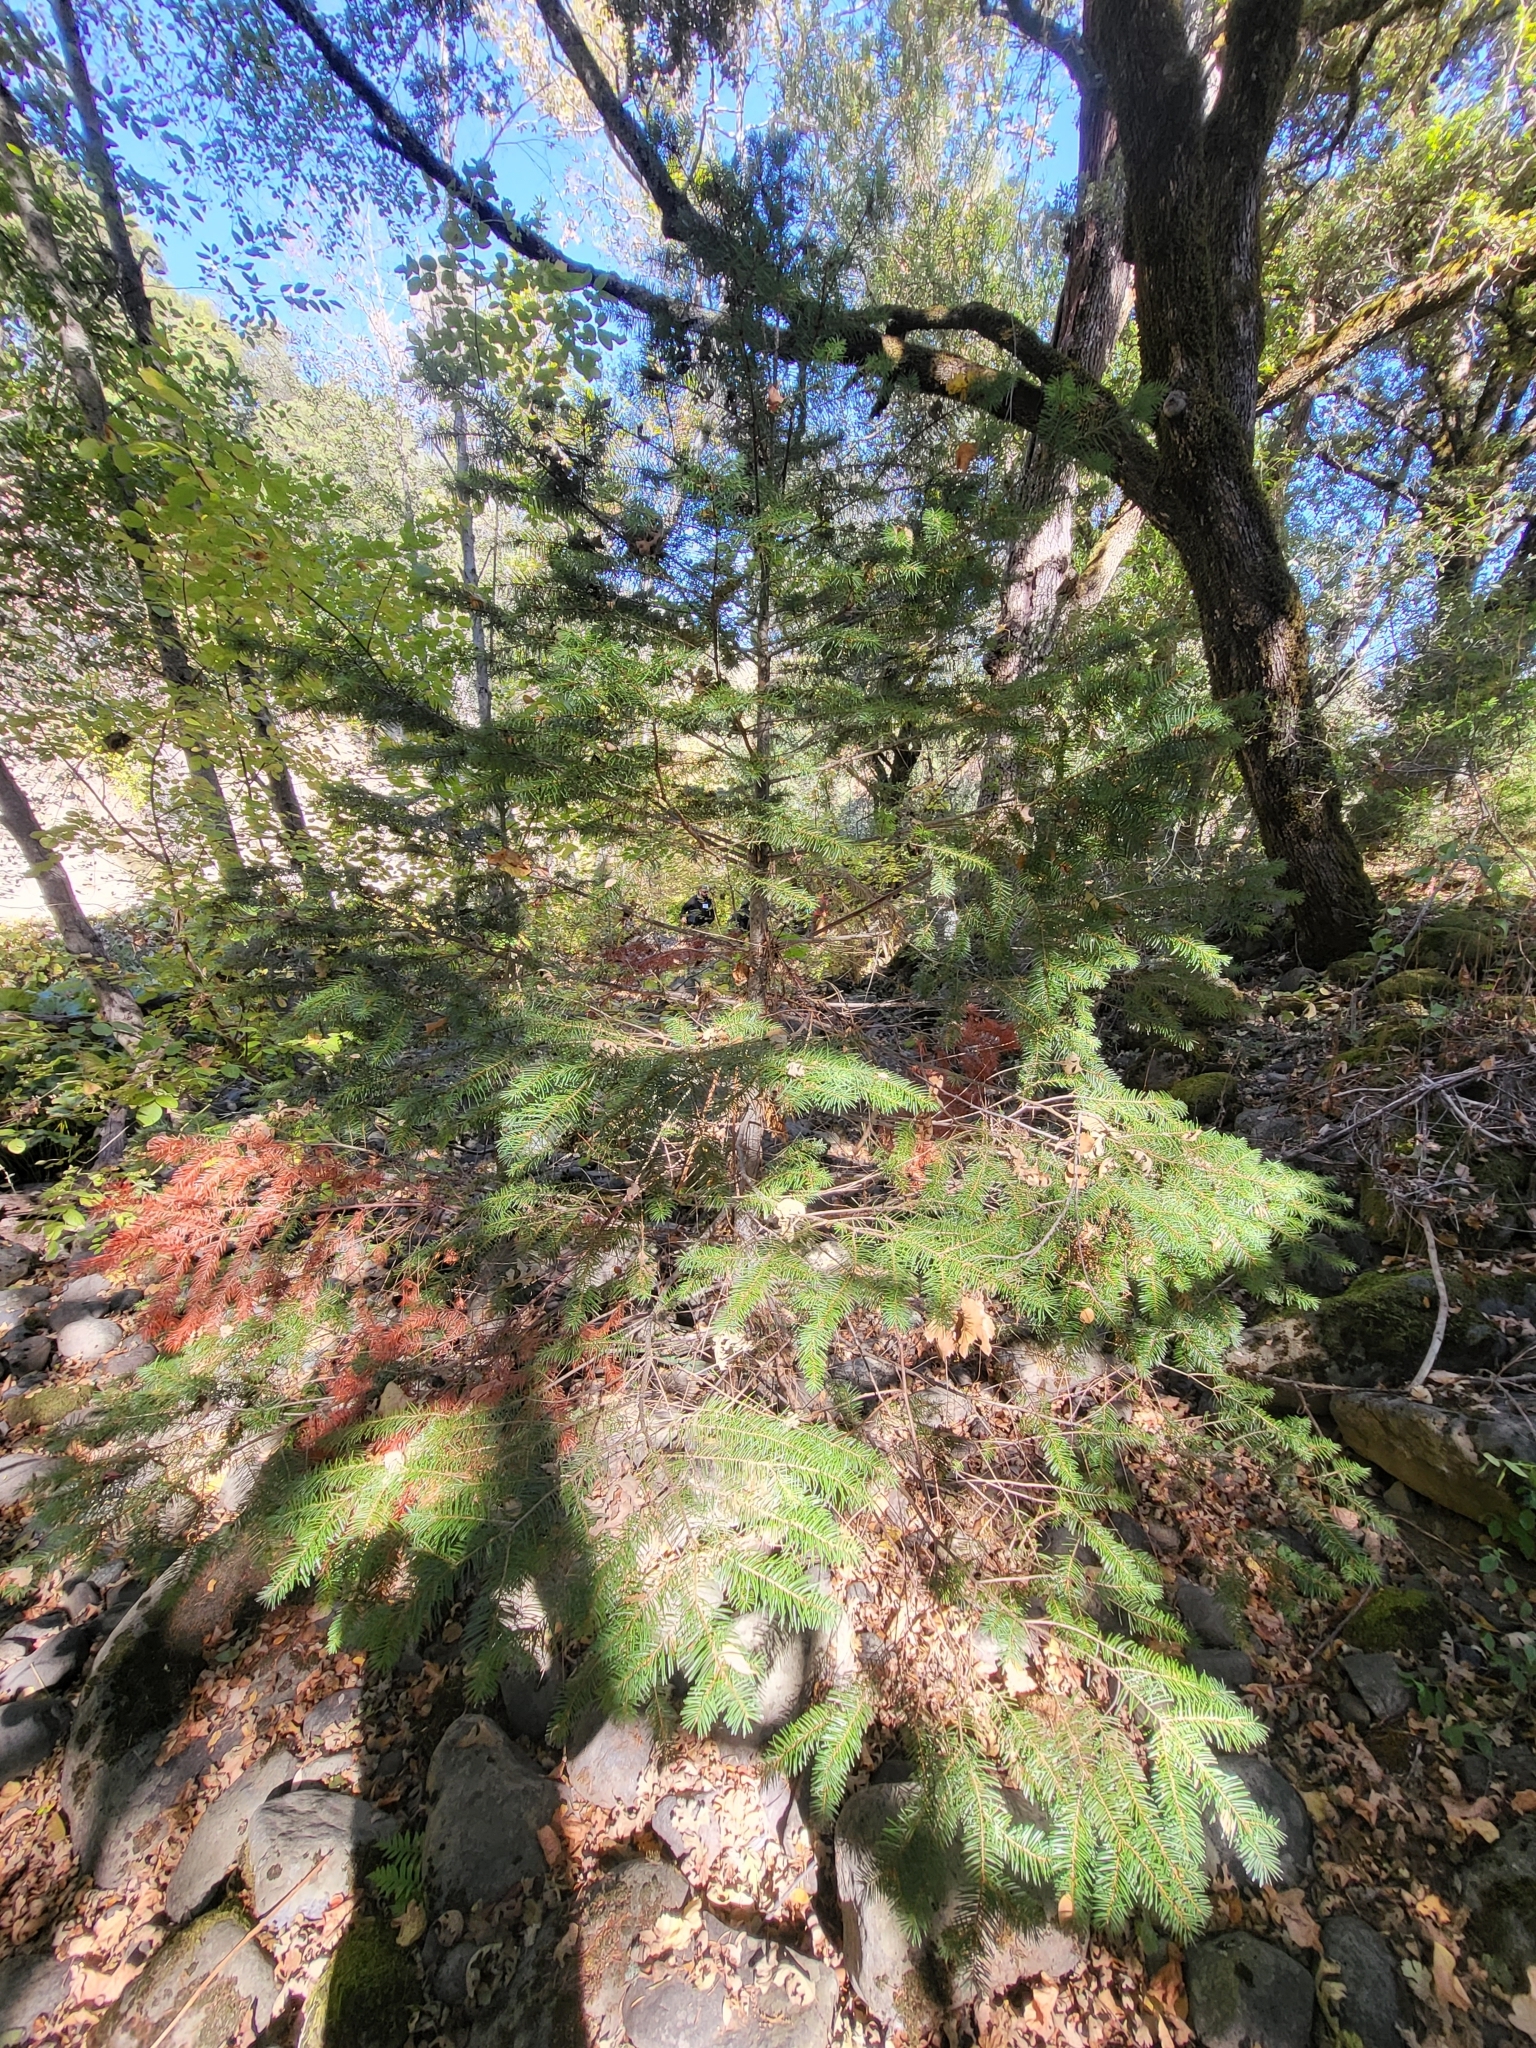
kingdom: Plantae
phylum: Tracheophyta
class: Pinopsida
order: Pinales
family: Pinaceae
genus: Pseudotsuga
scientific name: Pseudotsuga menziesii
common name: Douglas fir
